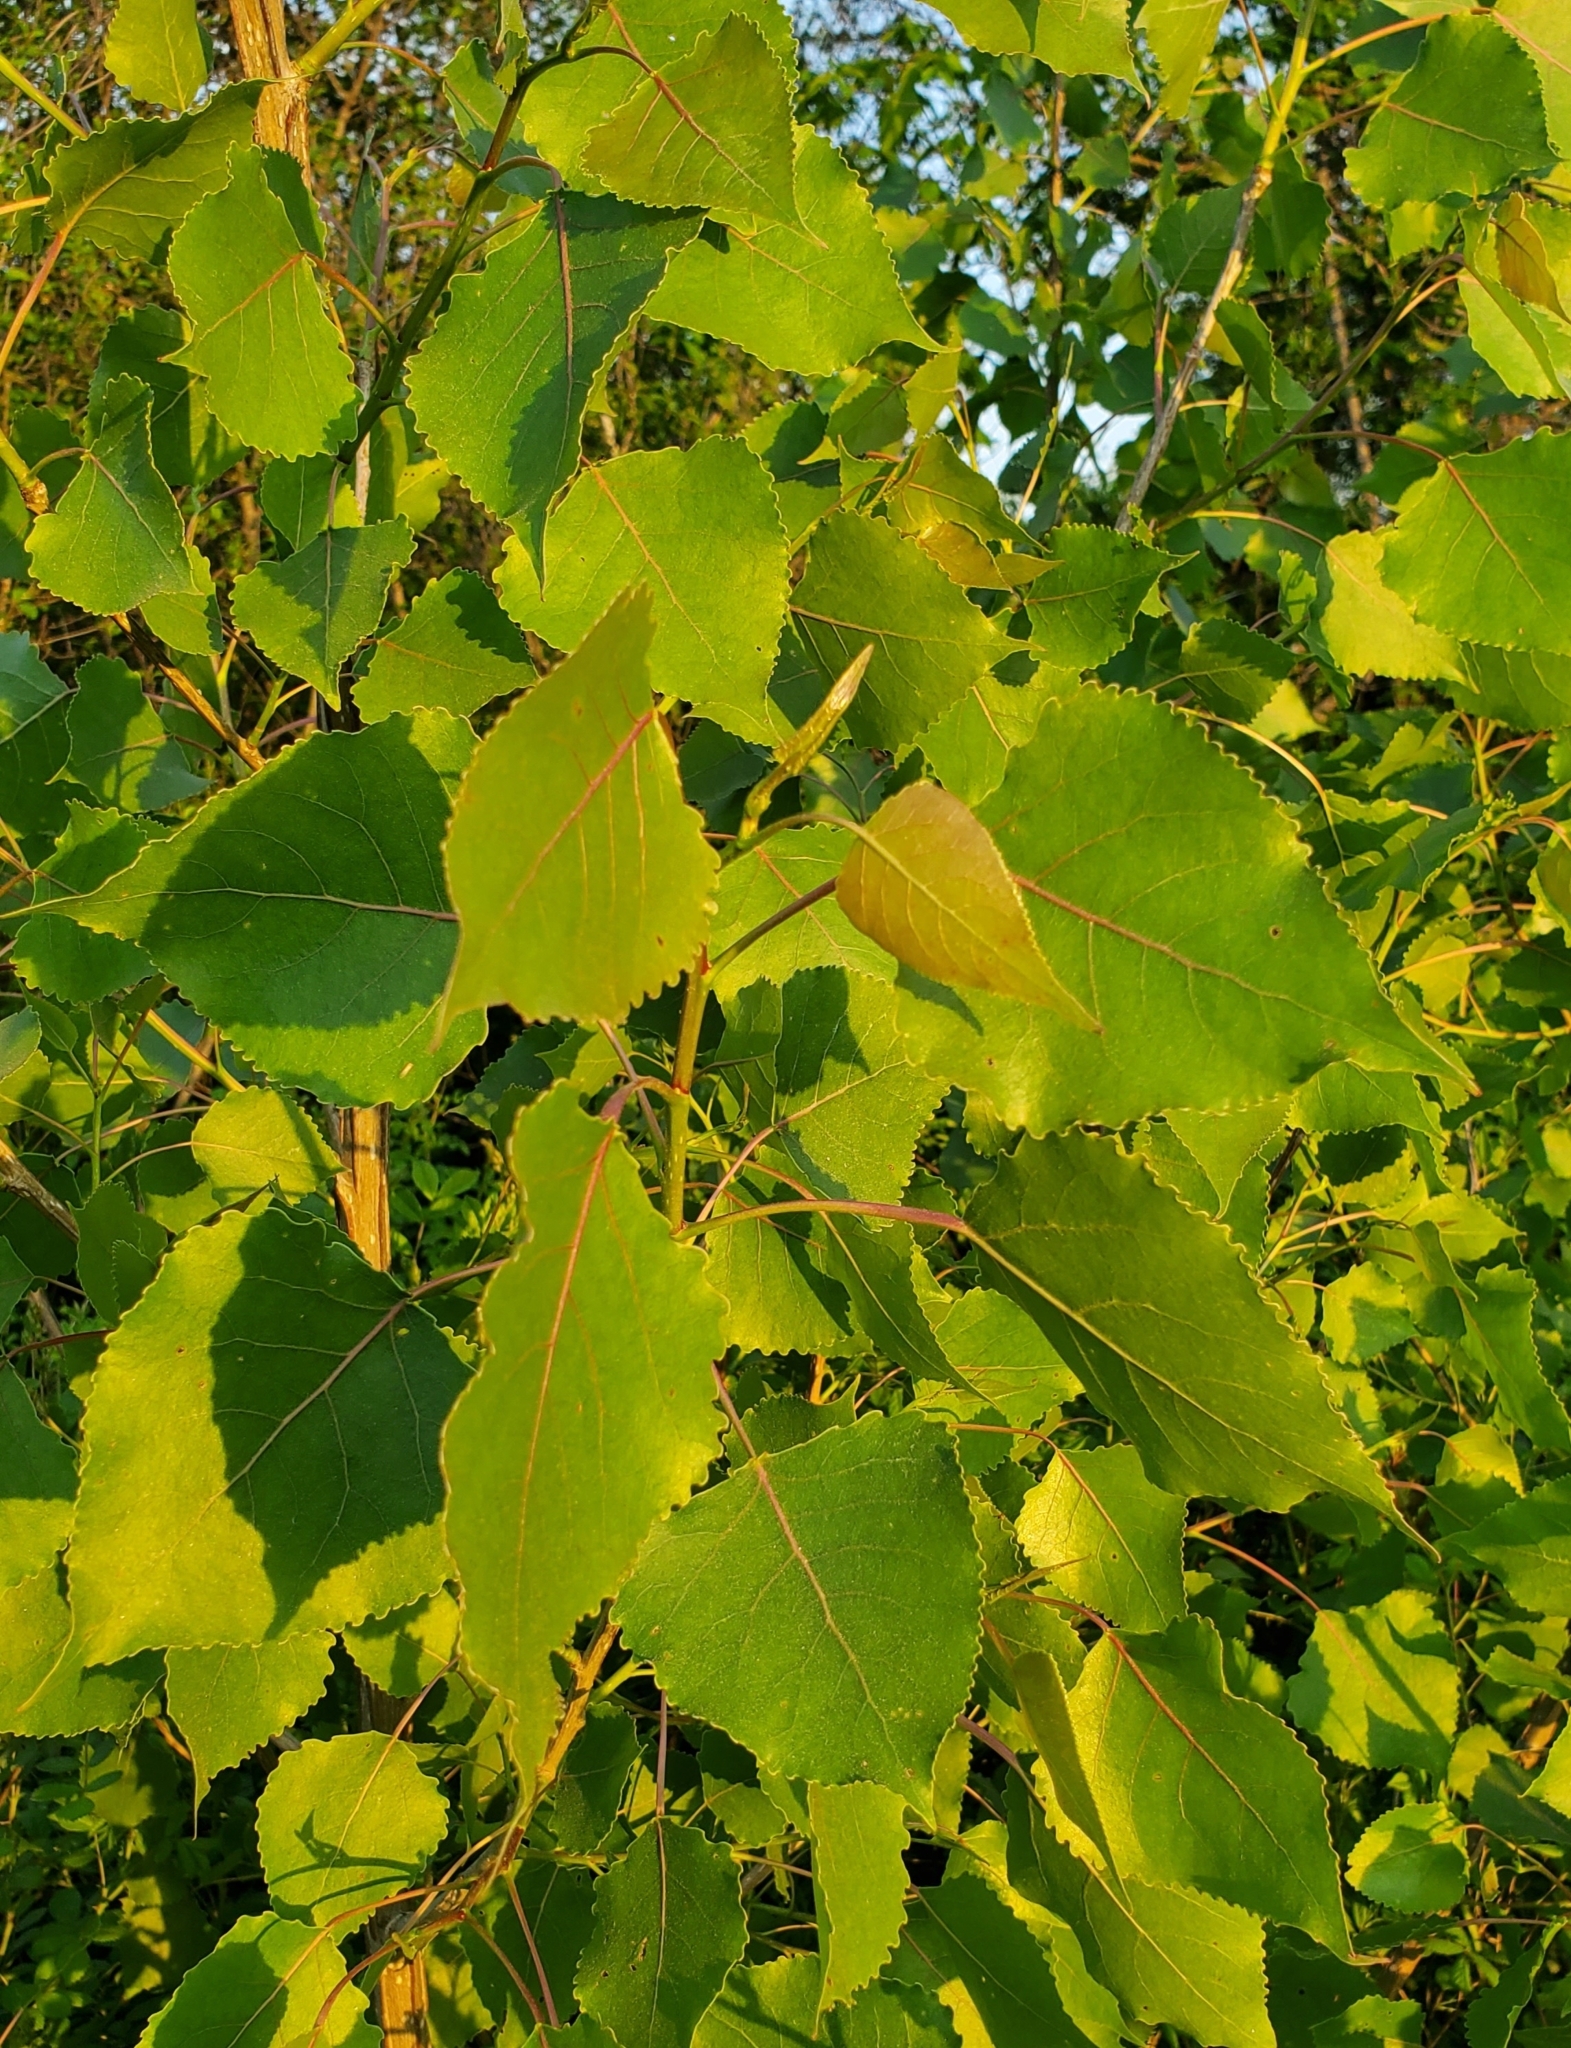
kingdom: Plantae
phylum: Tracheophyta
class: Magnoliopsida
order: Malpighiales
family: Salicaceae
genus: Populus
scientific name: Populus deltoides
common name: Eastern cottonwood
